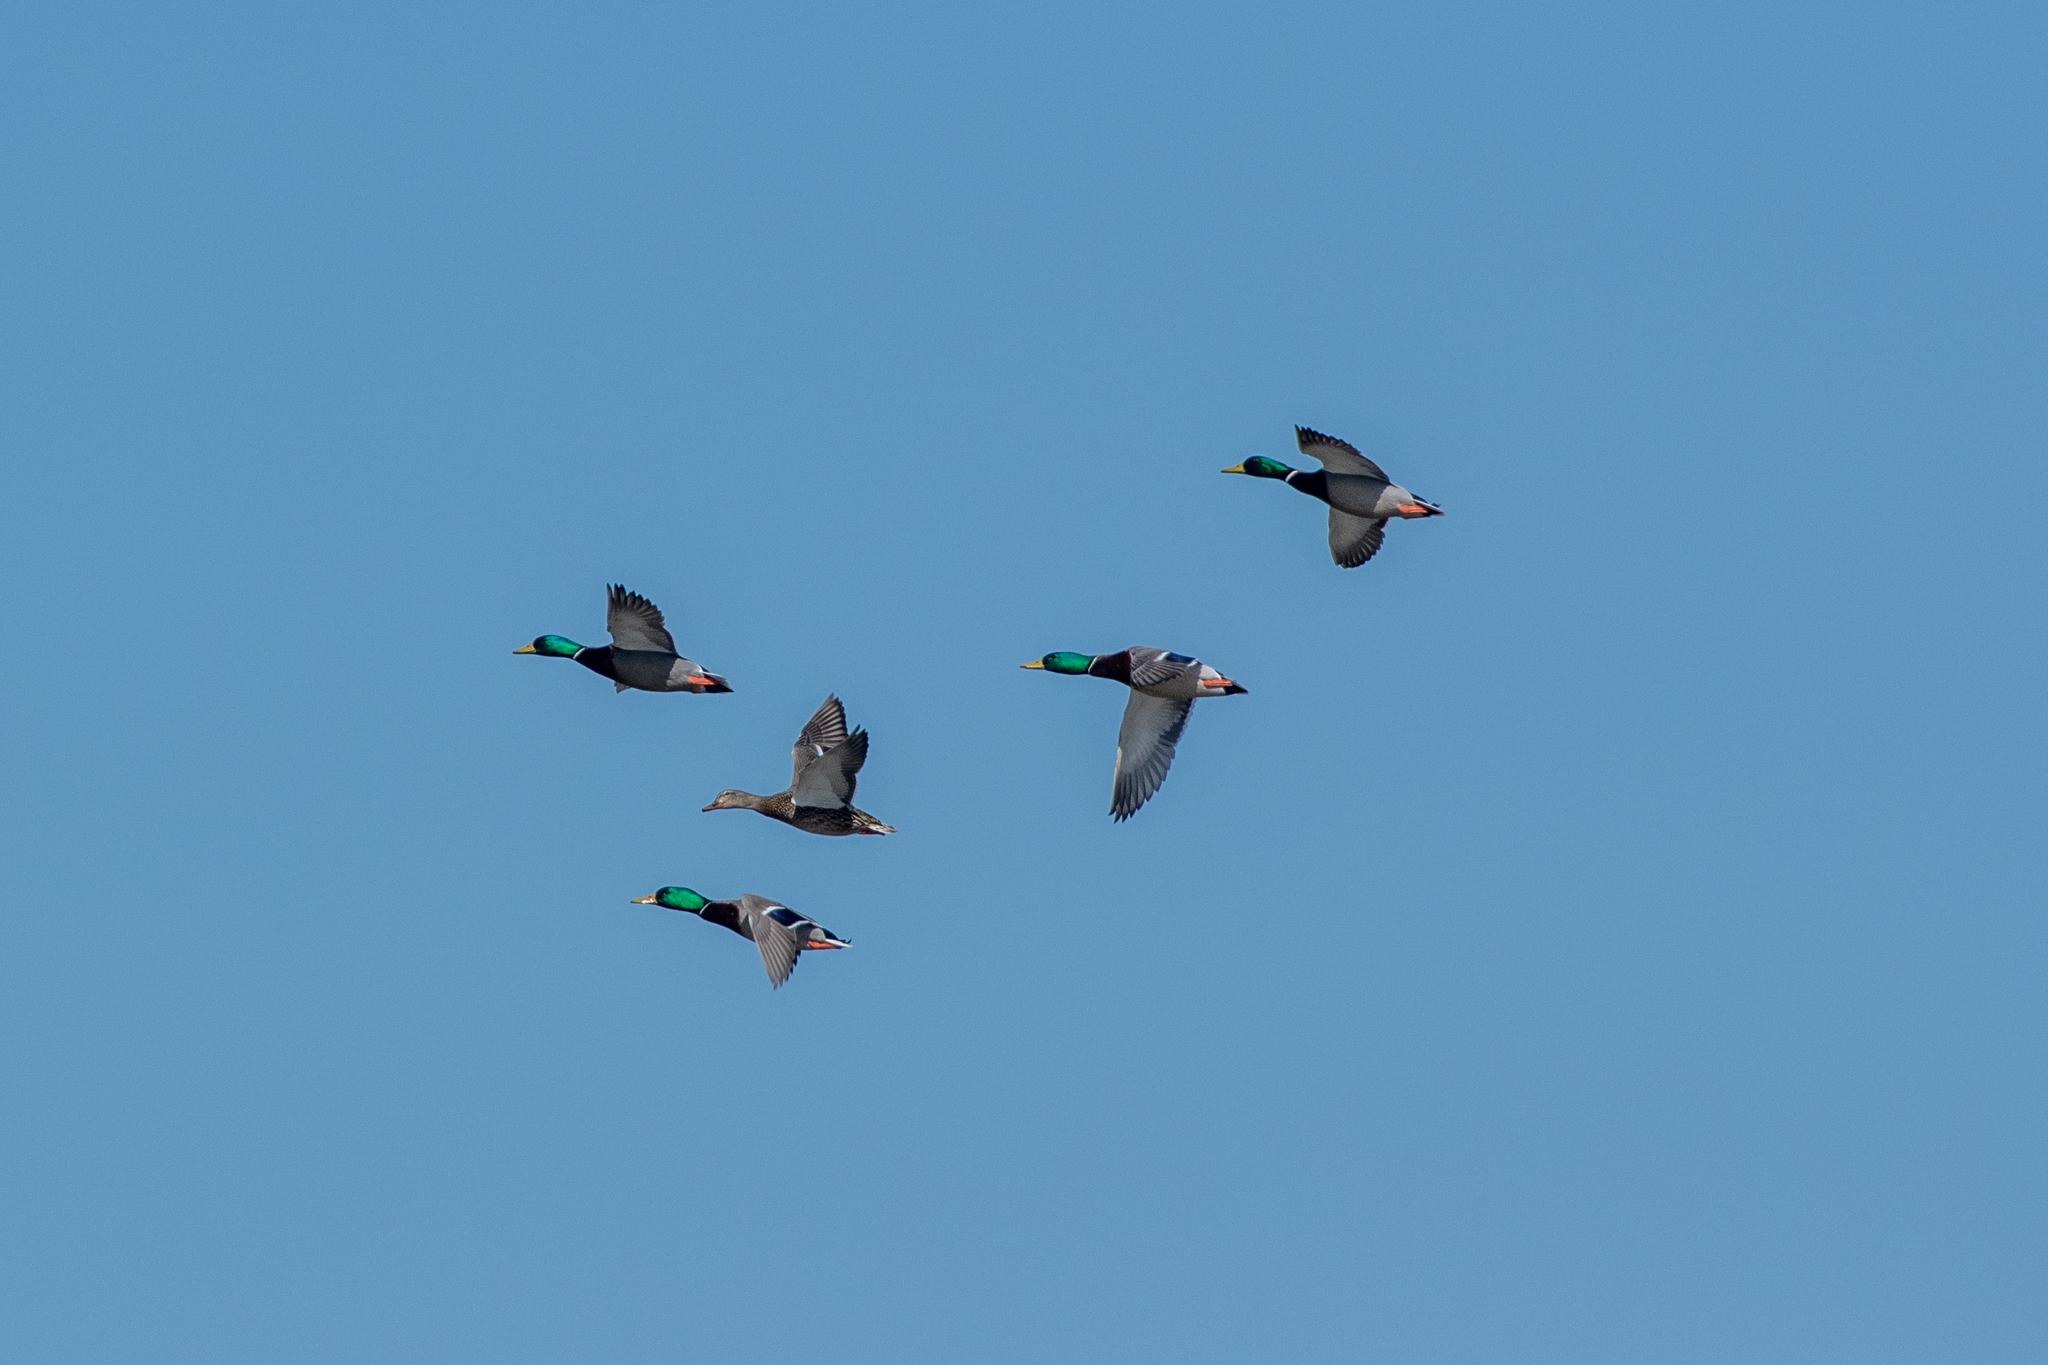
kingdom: Animalia
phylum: Chordata
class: Aves
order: Anseriformes
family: Anatidae
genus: Anas
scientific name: Anas platyrhynchos
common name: Mallard
